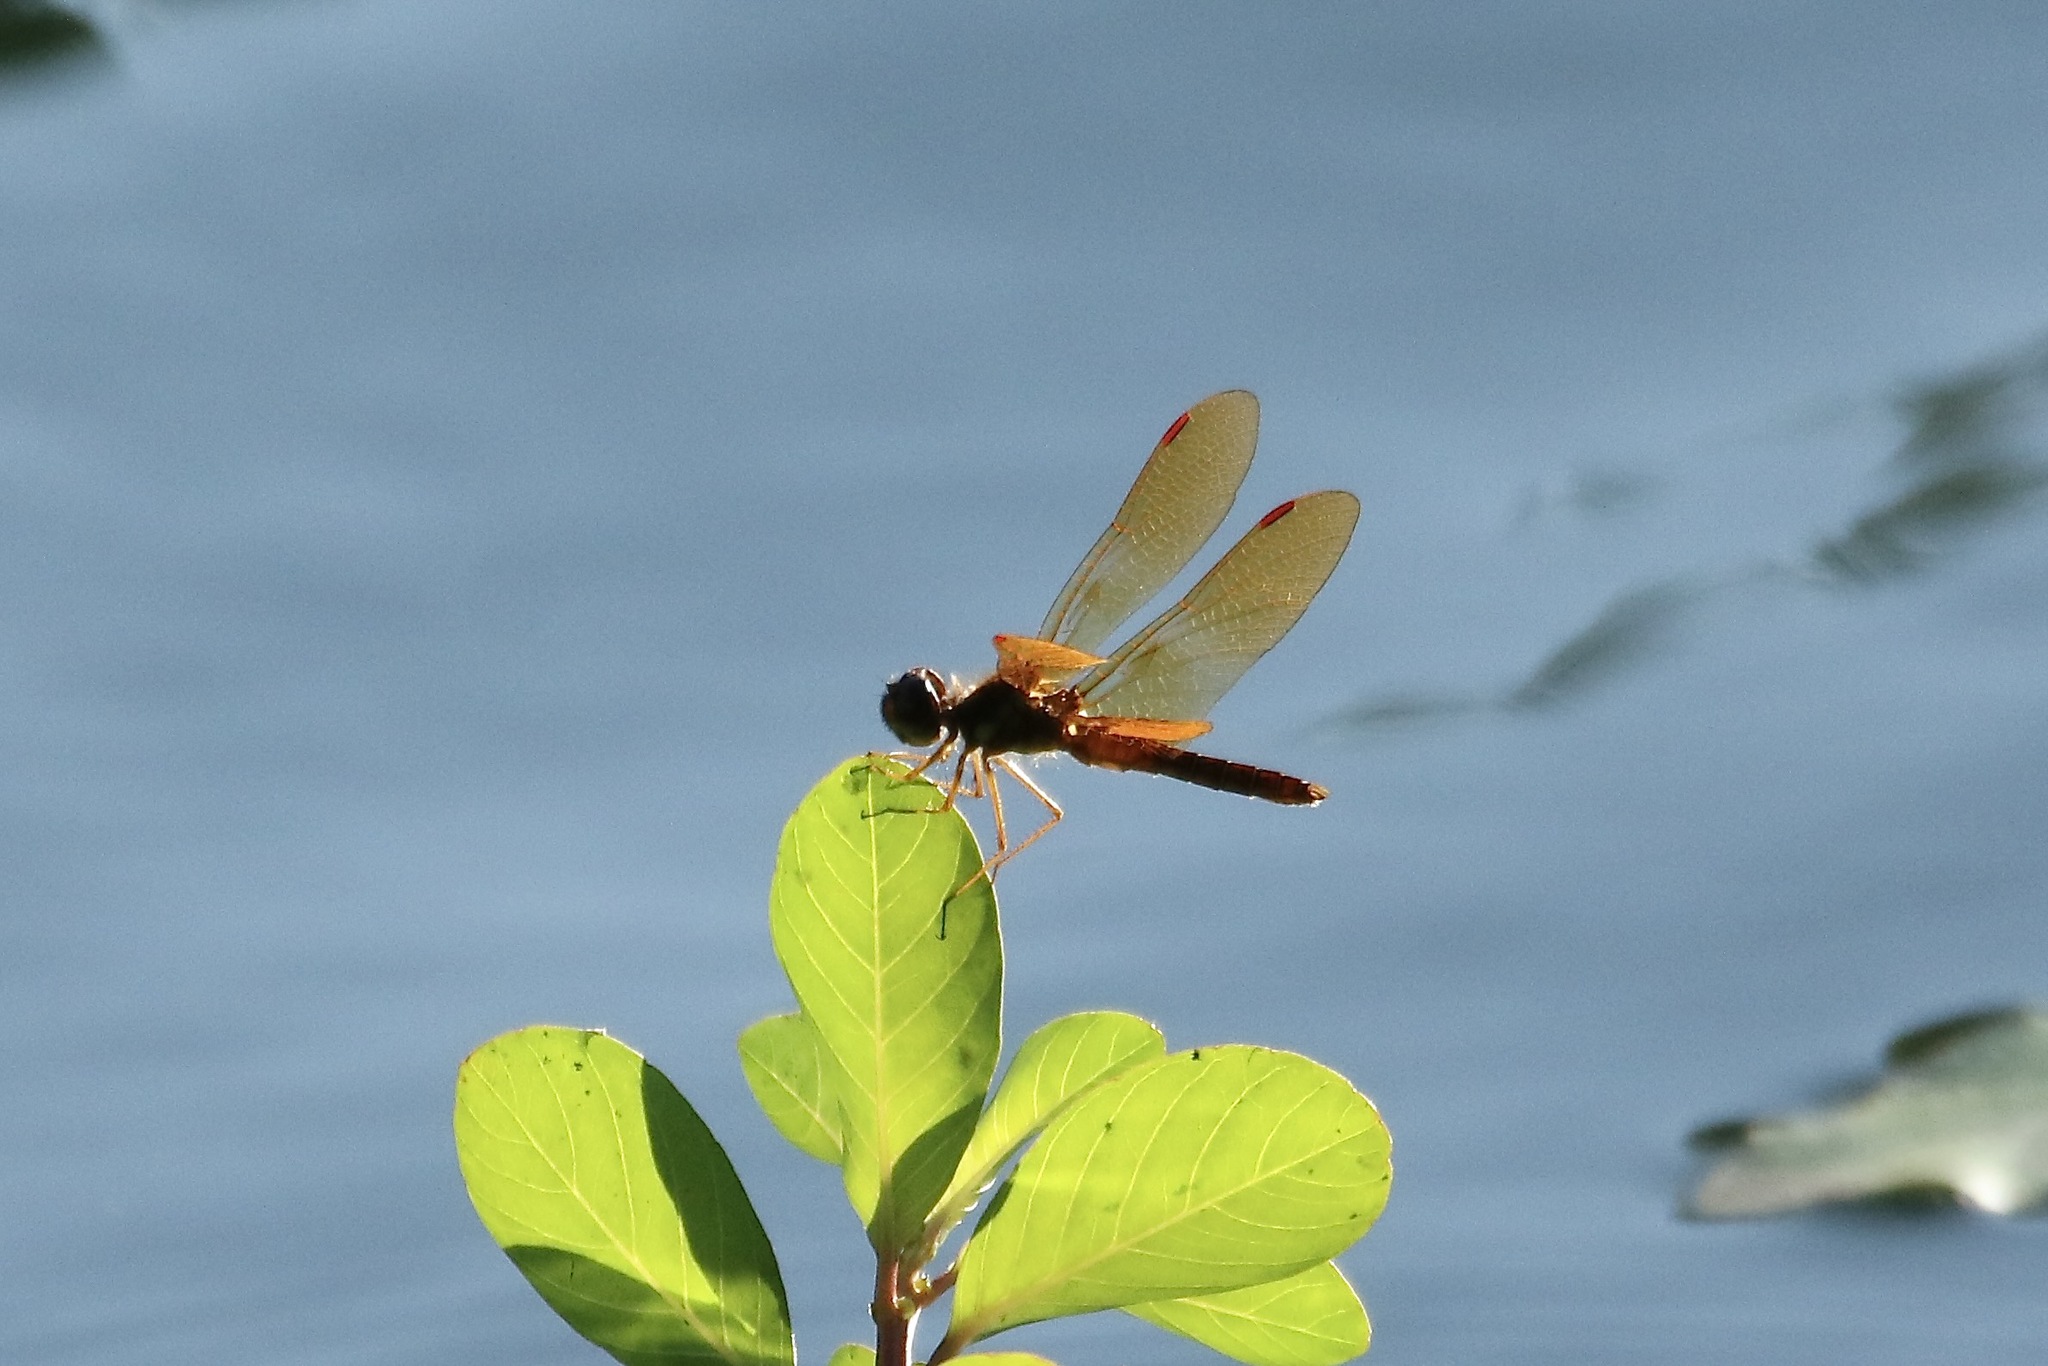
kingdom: Animalia
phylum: Arthropoda
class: Insecta
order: Odonata
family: Libellulidae
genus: Perithemis
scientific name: Perithemis tenera
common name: Eastern amberwing
